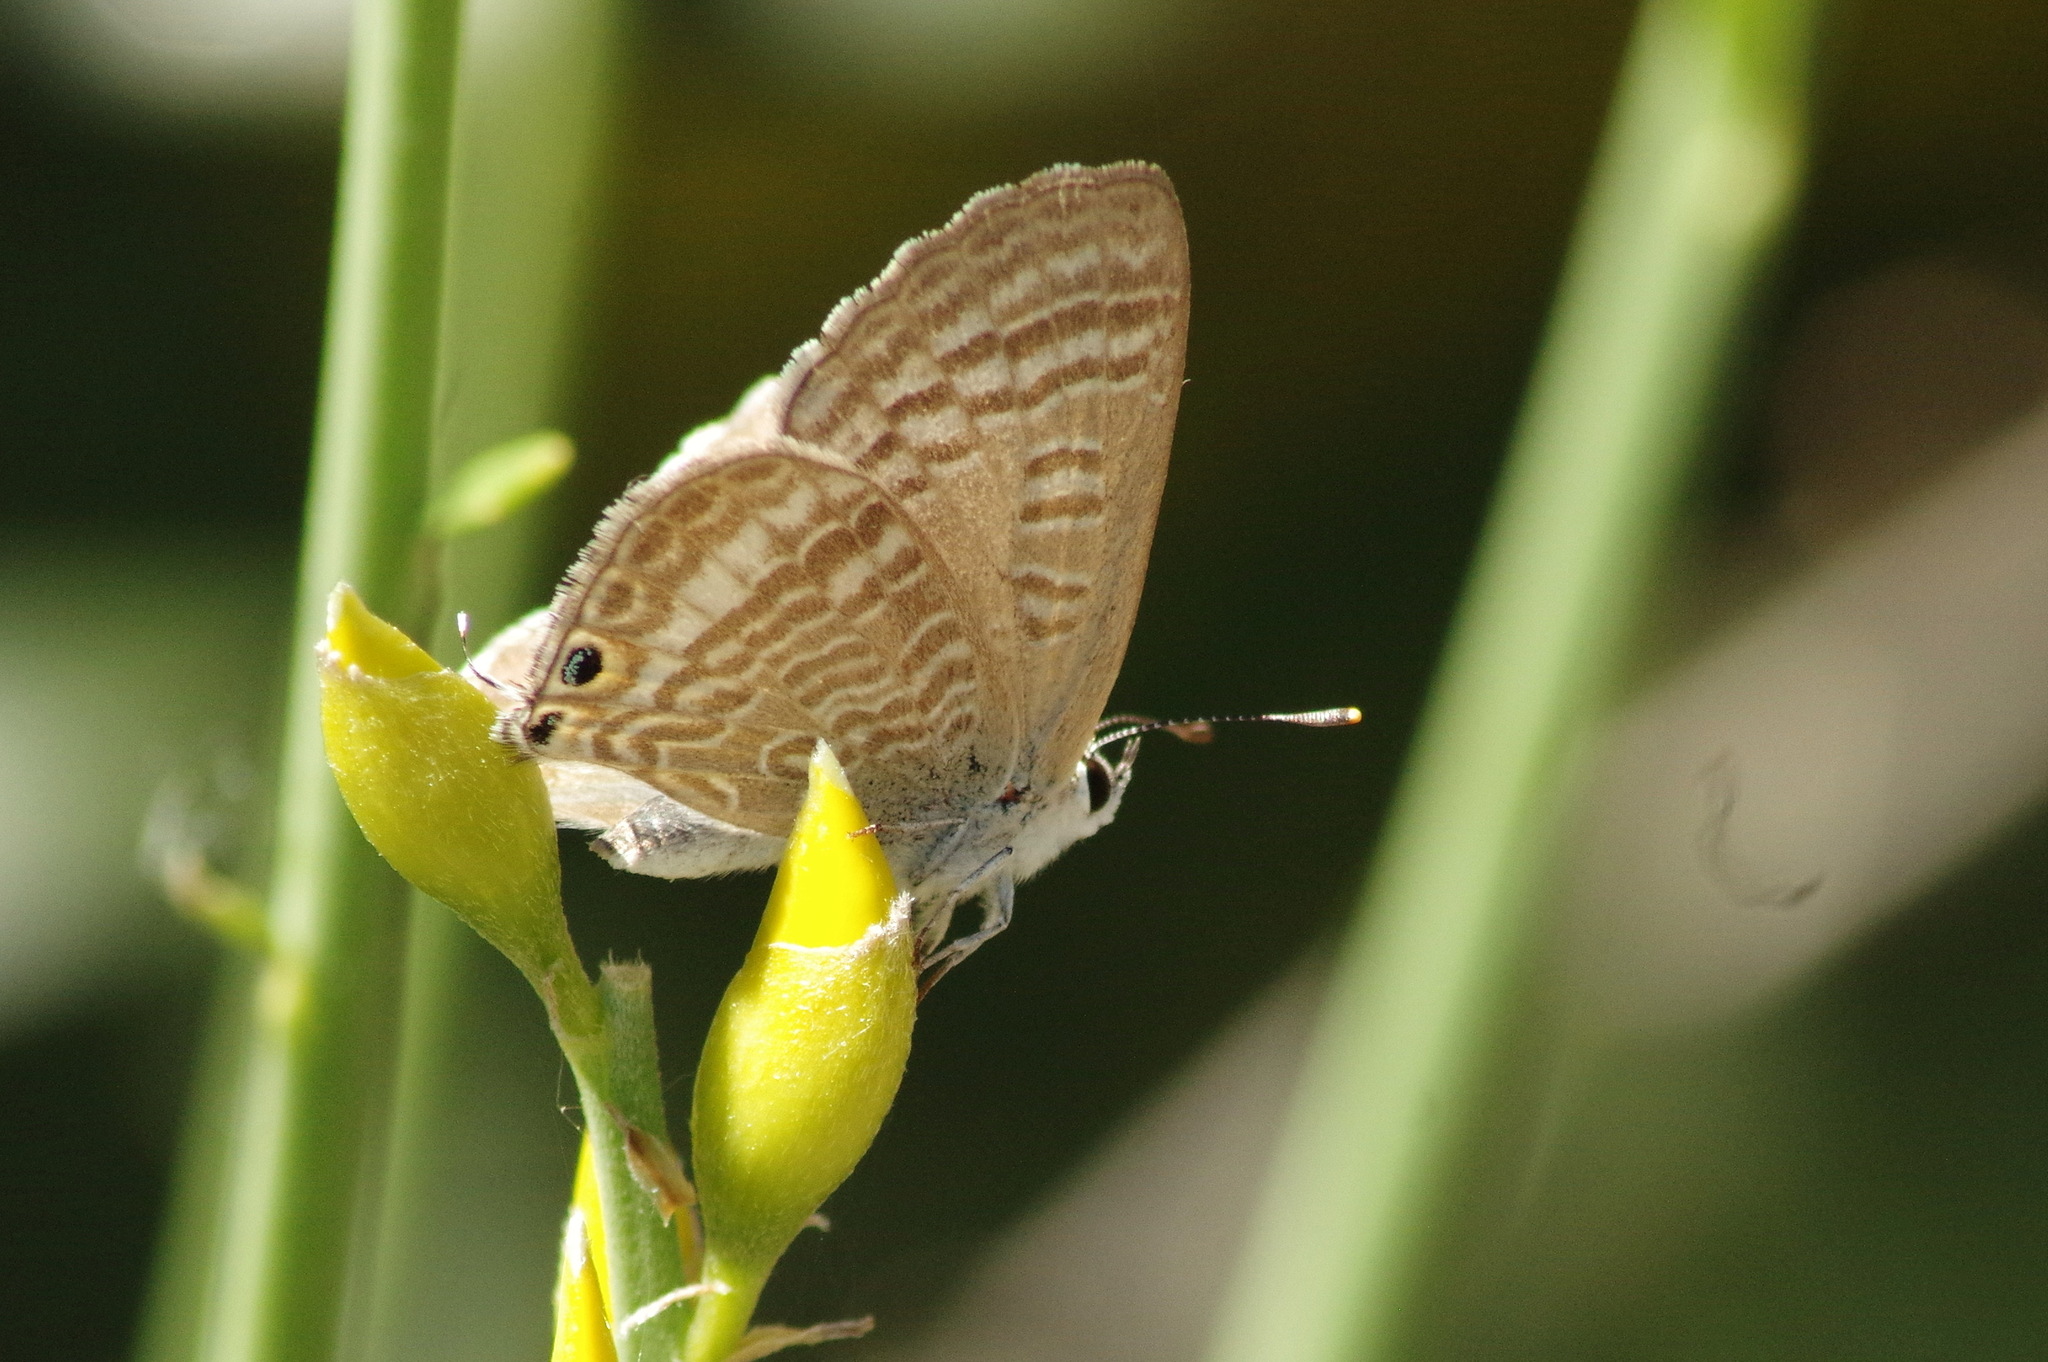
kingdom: Animalia
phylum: Arthropoda
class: Insecta
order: Lepidoptera
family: Lycaenidae
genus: Lampides
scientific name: Lampides boeticus
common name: Long-tailed blue
